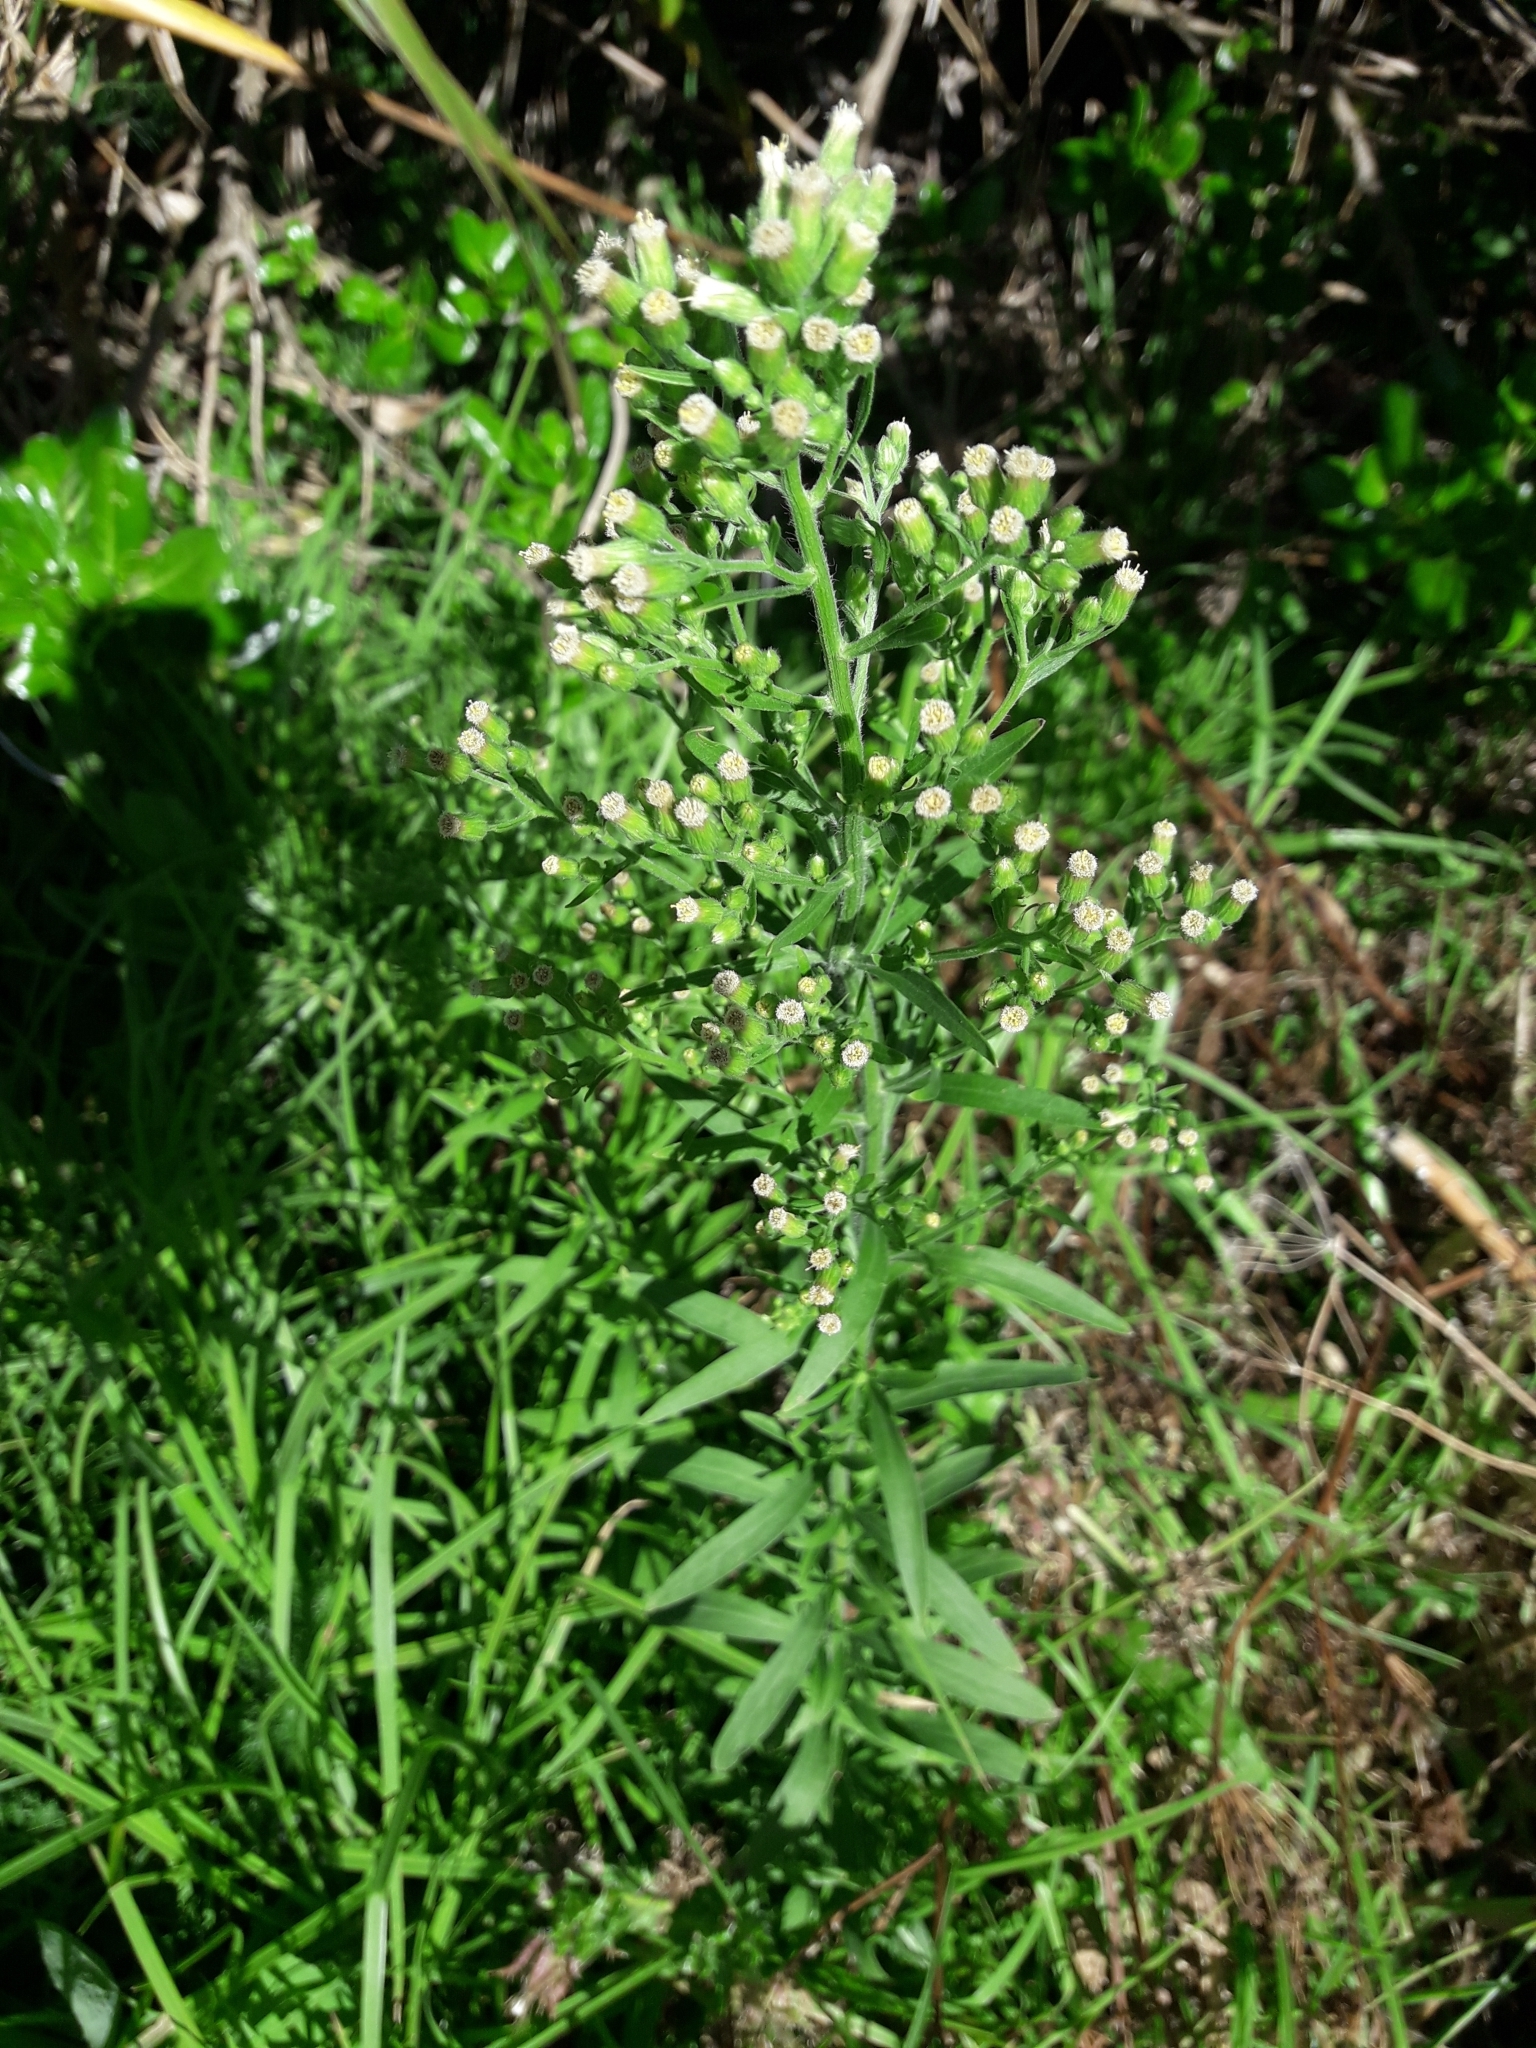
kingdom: Plantae
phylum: Tracheophyta
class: Magnoliopsida
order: Asterales
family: Asteraceae
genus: Erigeron
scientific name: Erigeron sumatrensis
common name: Daisy
